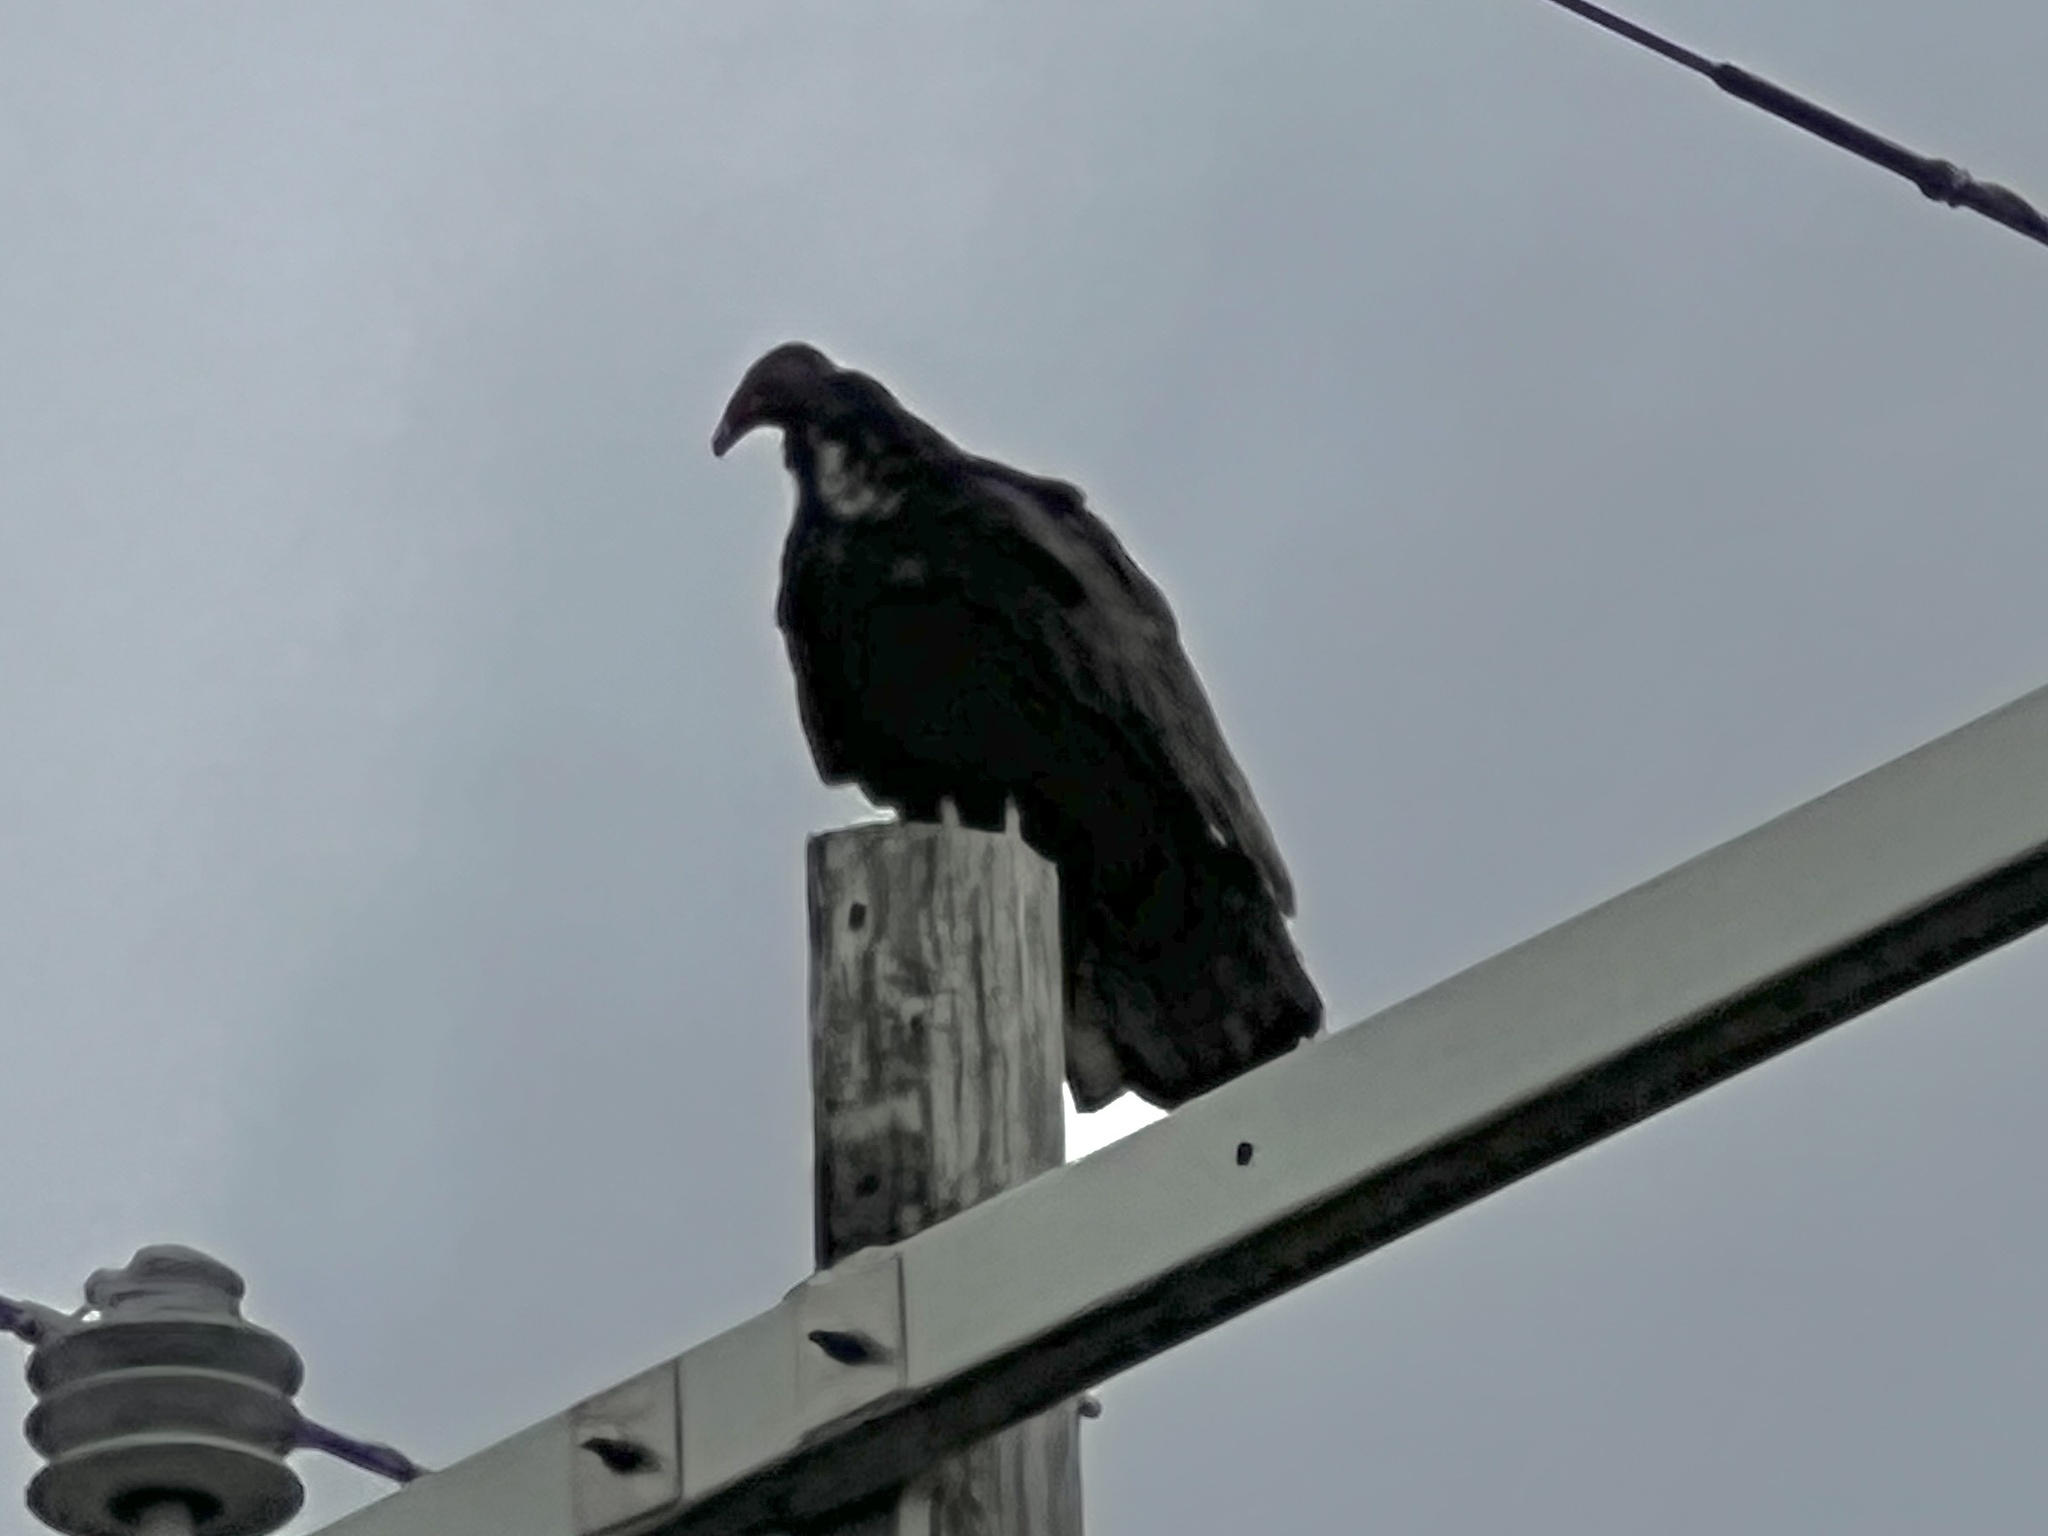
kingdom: Animalia
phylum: Chordata
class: Aves
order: Accipitriformes
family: Cathartidae
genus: Cathartes
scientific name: Cathartes aura
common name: Turkey vulture
